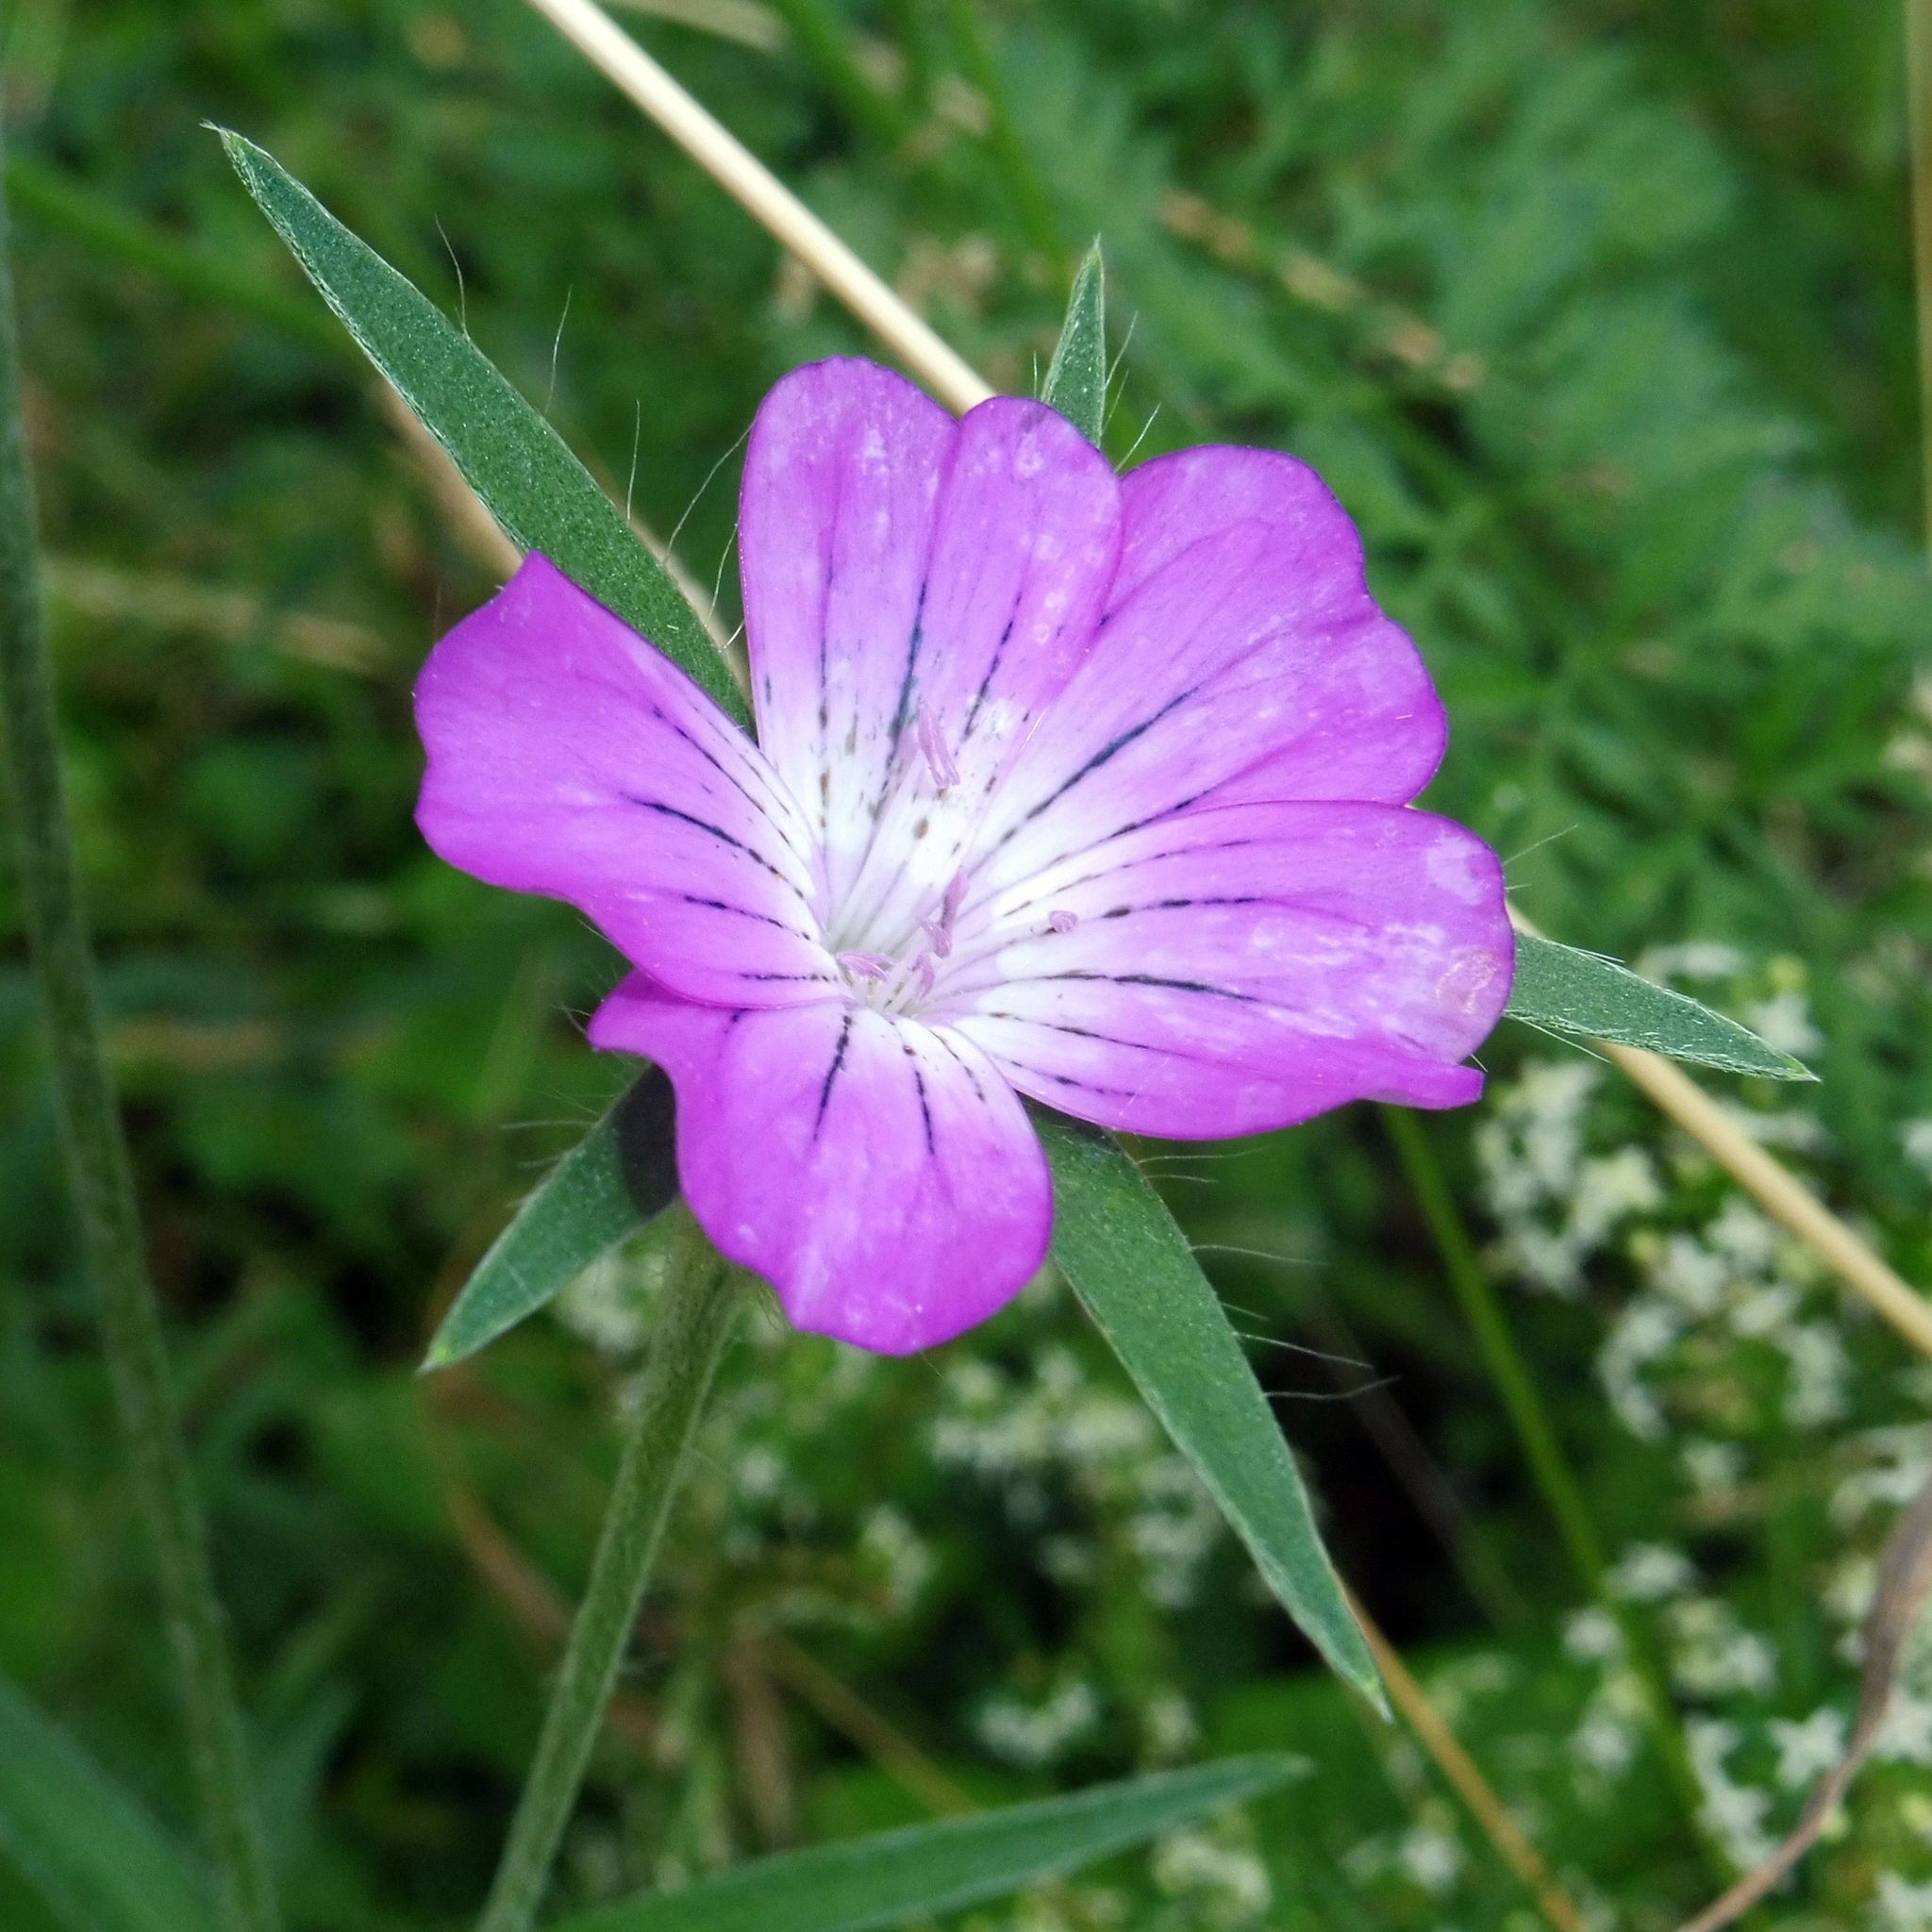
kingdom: Plantae
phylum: Tracheophyta
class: Magnoliopsida
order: Caryophyllales
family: Caryophyllaceae
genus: Agrostemma
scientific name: Agrostemma githago
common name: Common corncockle
